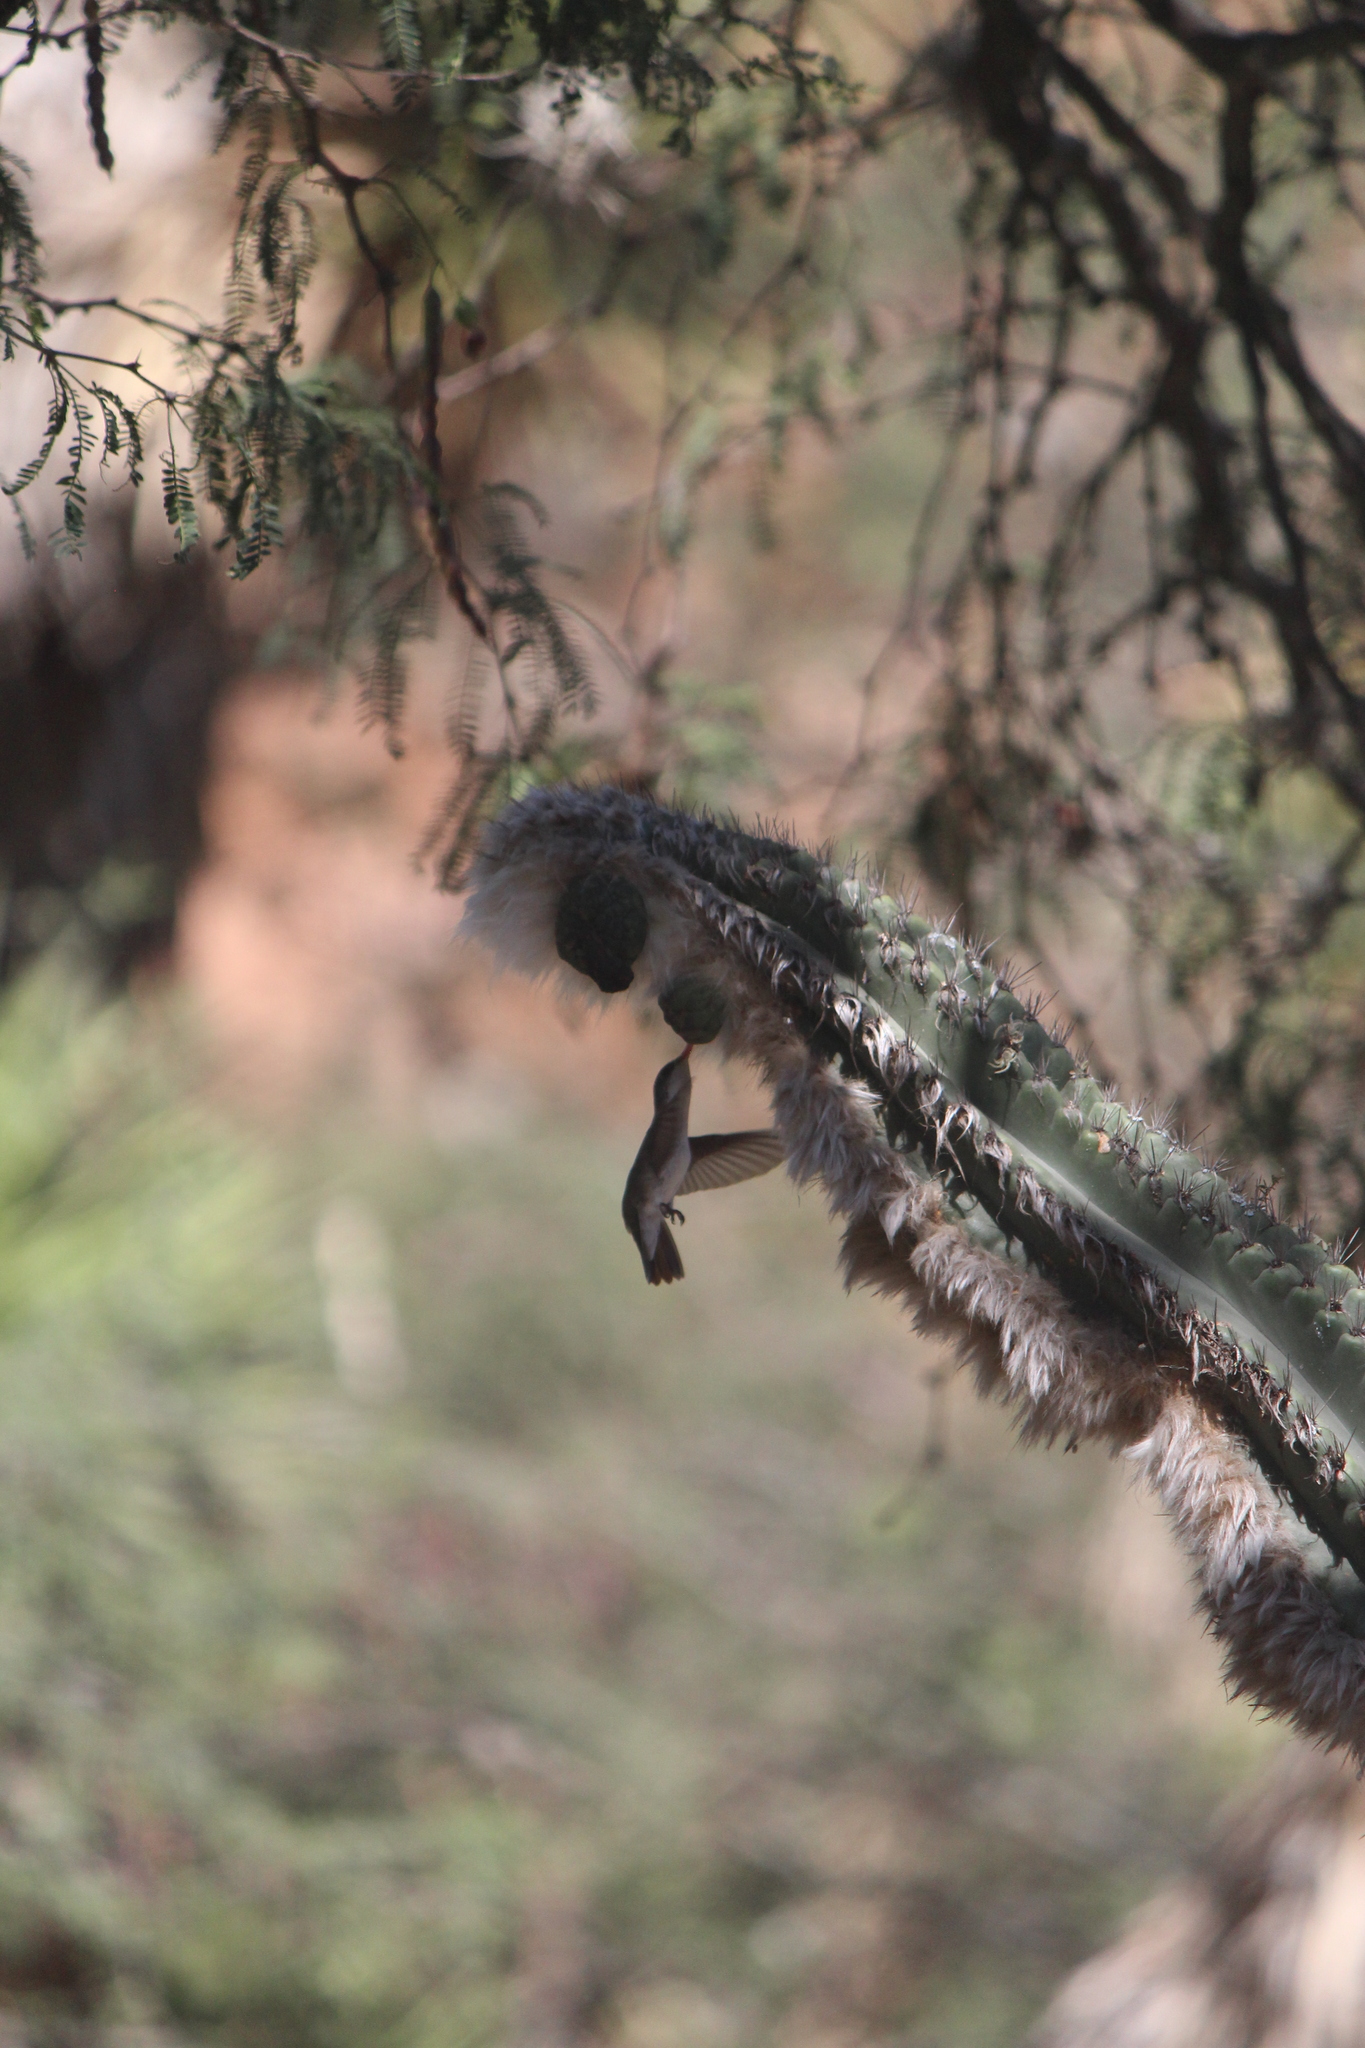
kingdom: Animalia
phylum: Chordata
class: Aves
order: Apodiformes
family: Trochilidae
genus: Leucolia
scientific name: Leucolia violiceps
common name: Violet-crowned hummingbird
